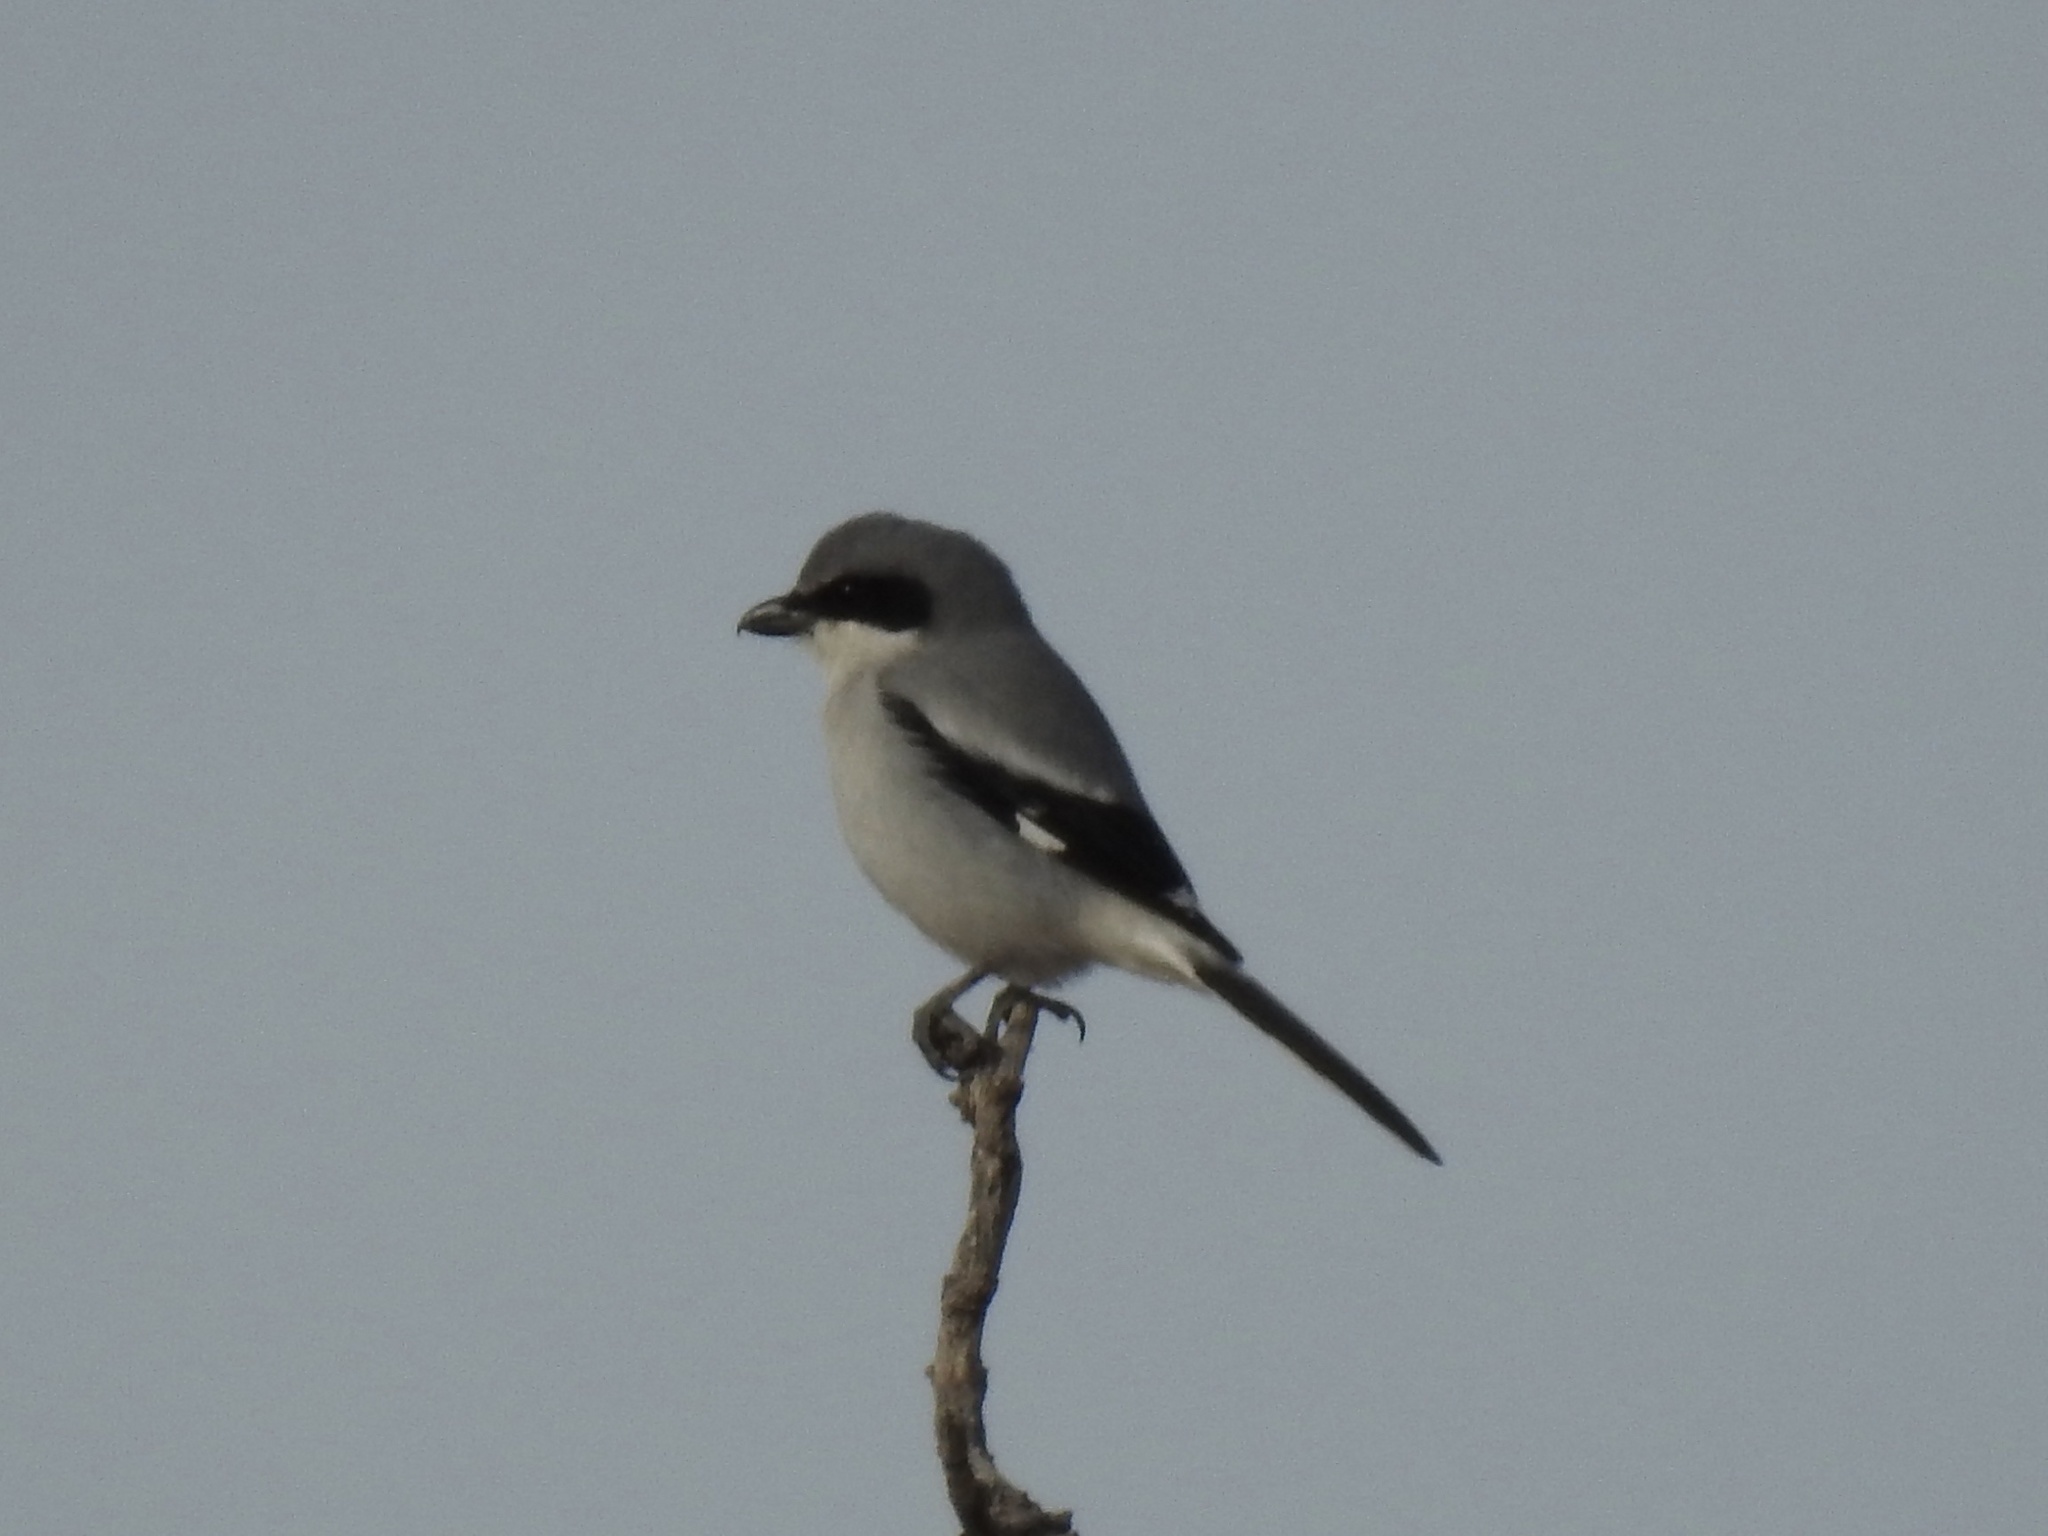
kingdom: Animalia
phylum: Chordata
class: Aves
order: Passeriformes
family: Laniidae
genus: Lanius
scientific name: Lanius ludovicianus
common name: Loggerhead shrike
